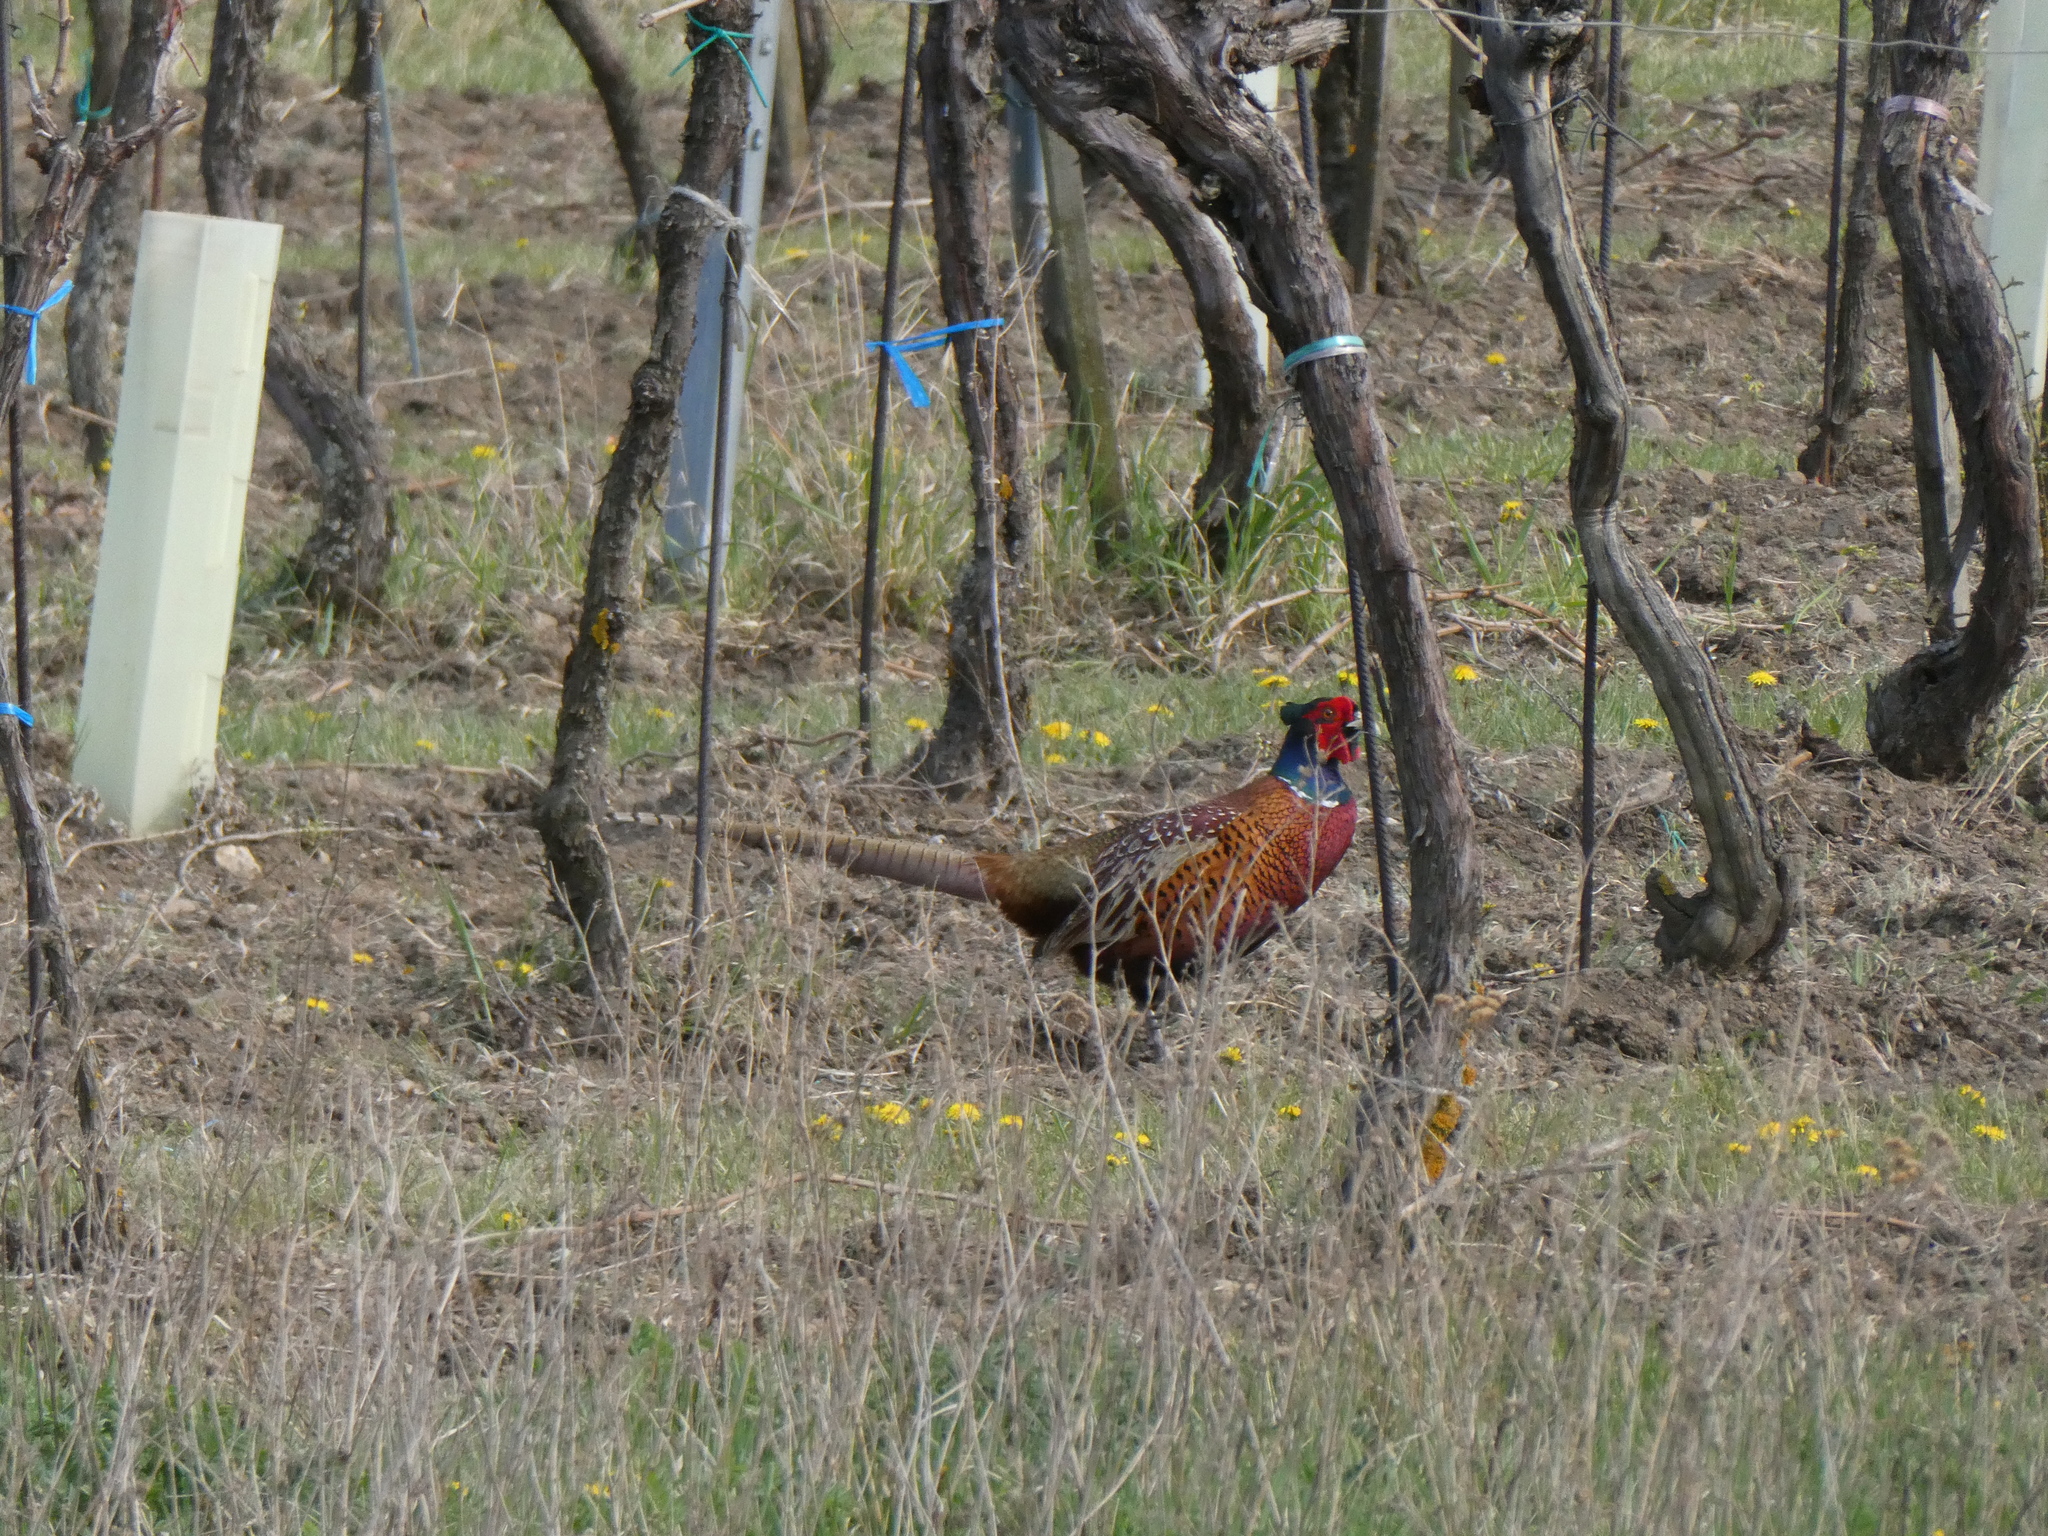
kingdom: Animalia
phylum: Chordata
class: Aves
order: Galliformes
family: Phasianidae
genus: Phasianus
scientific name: Phasianus colchicus
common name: Common pheasant
